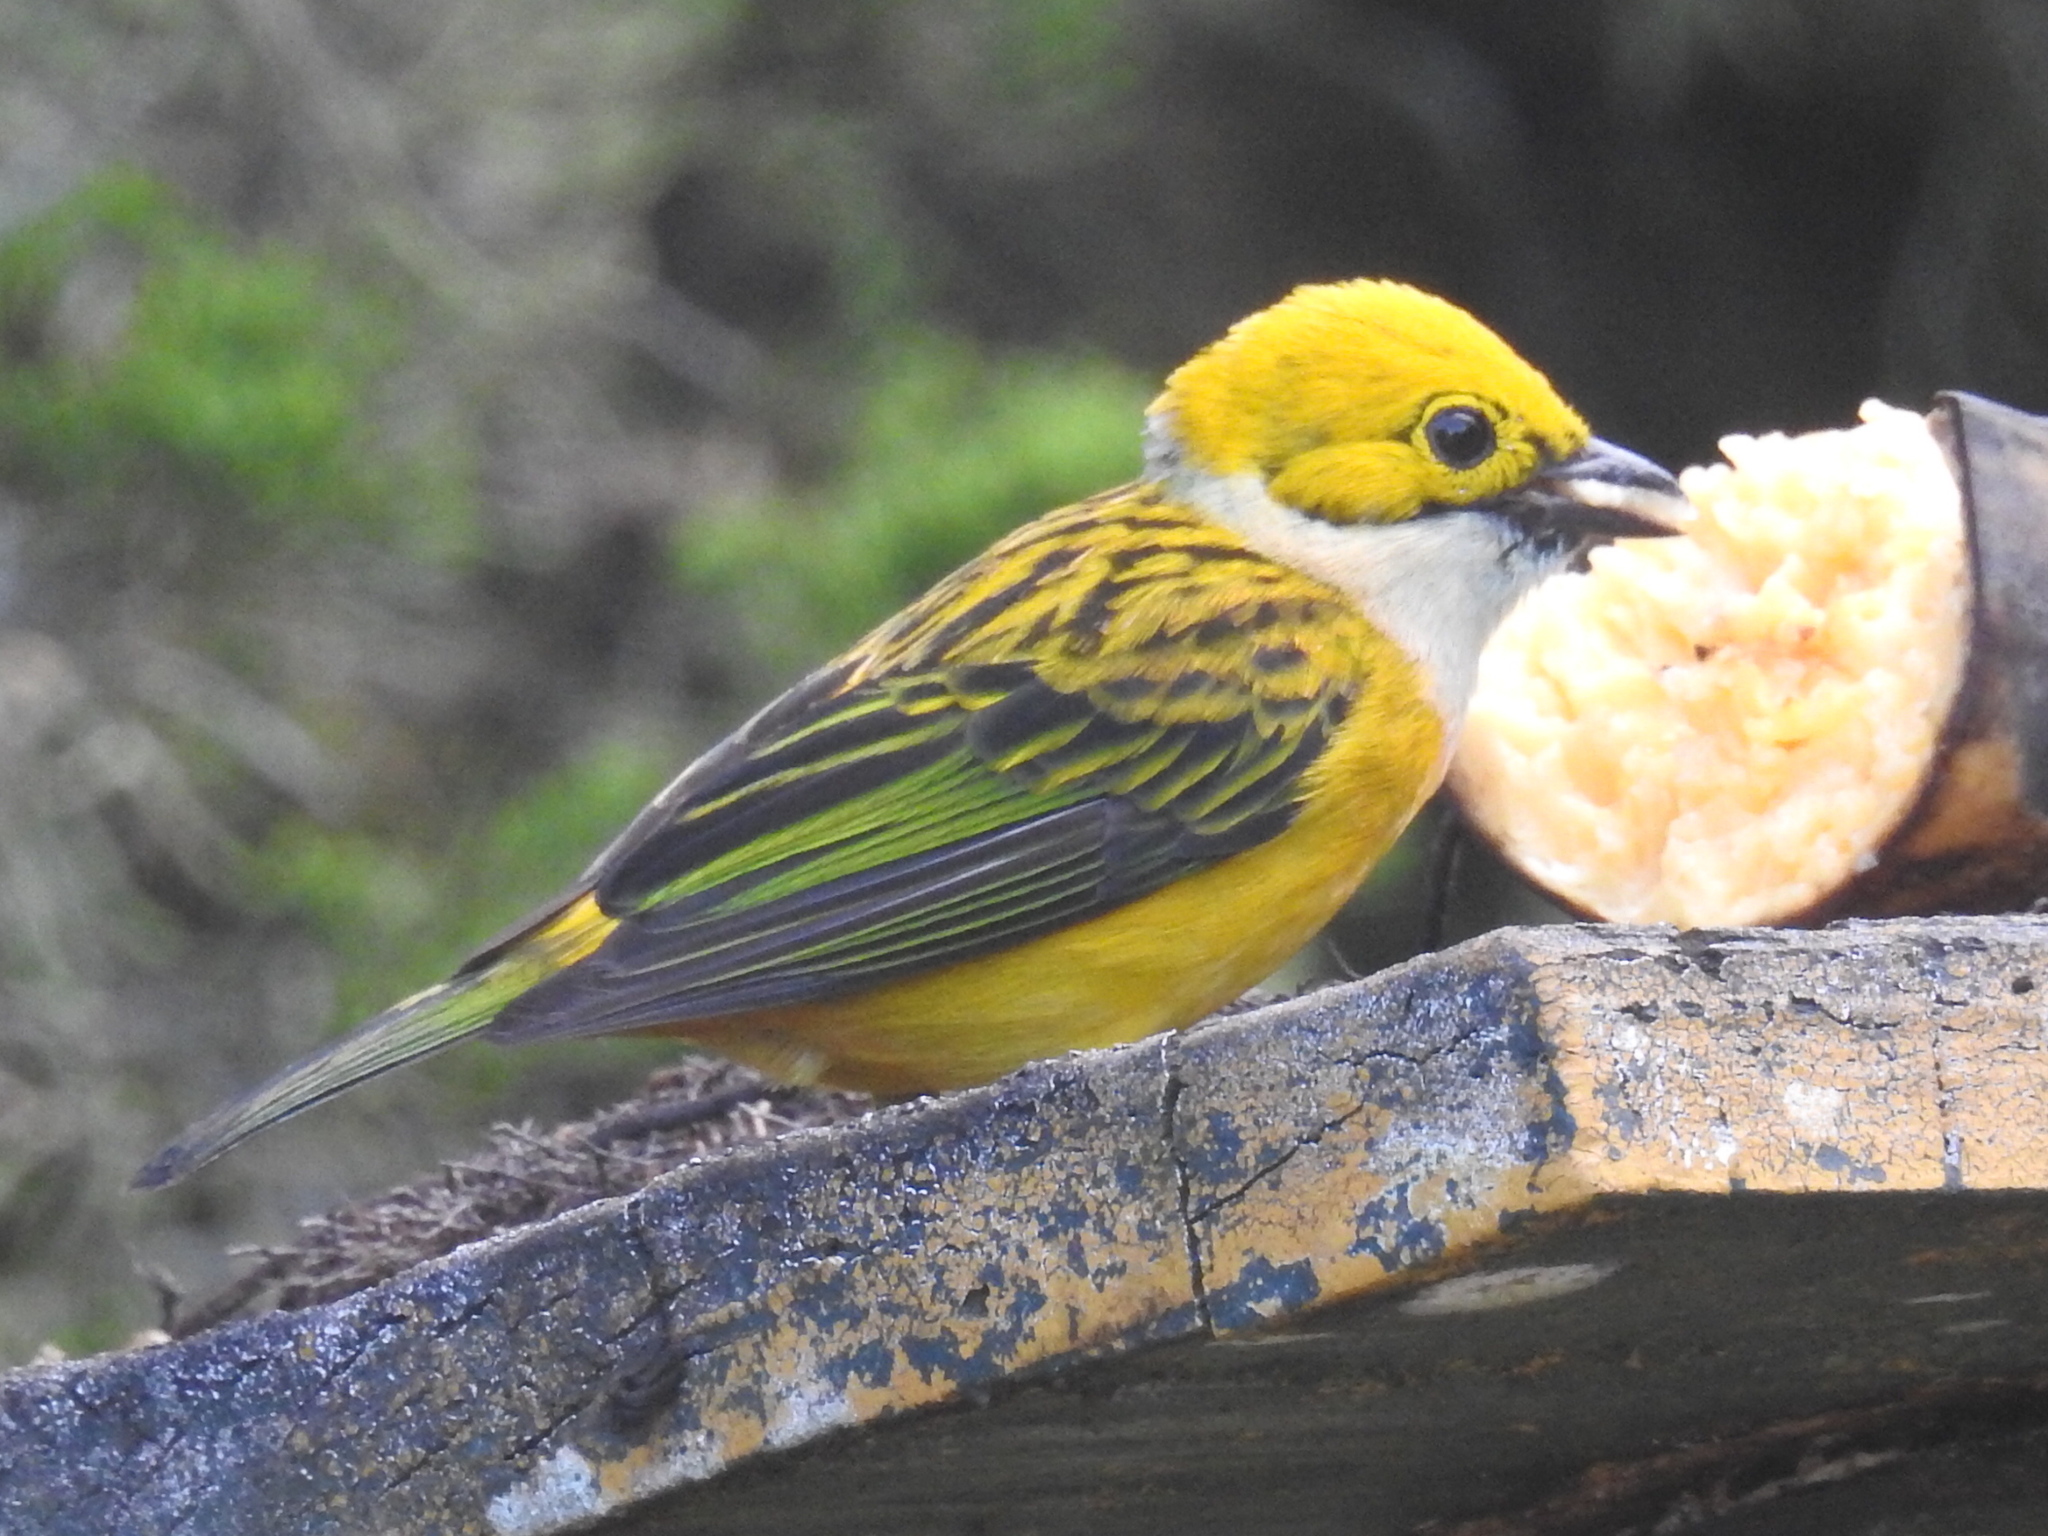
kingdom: Animalia
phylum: Chordata
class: Aves
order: Passeriformes
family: Thraupidae
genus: Tangara
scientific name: Tangara icterocephala
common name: Silver-throated tanager
